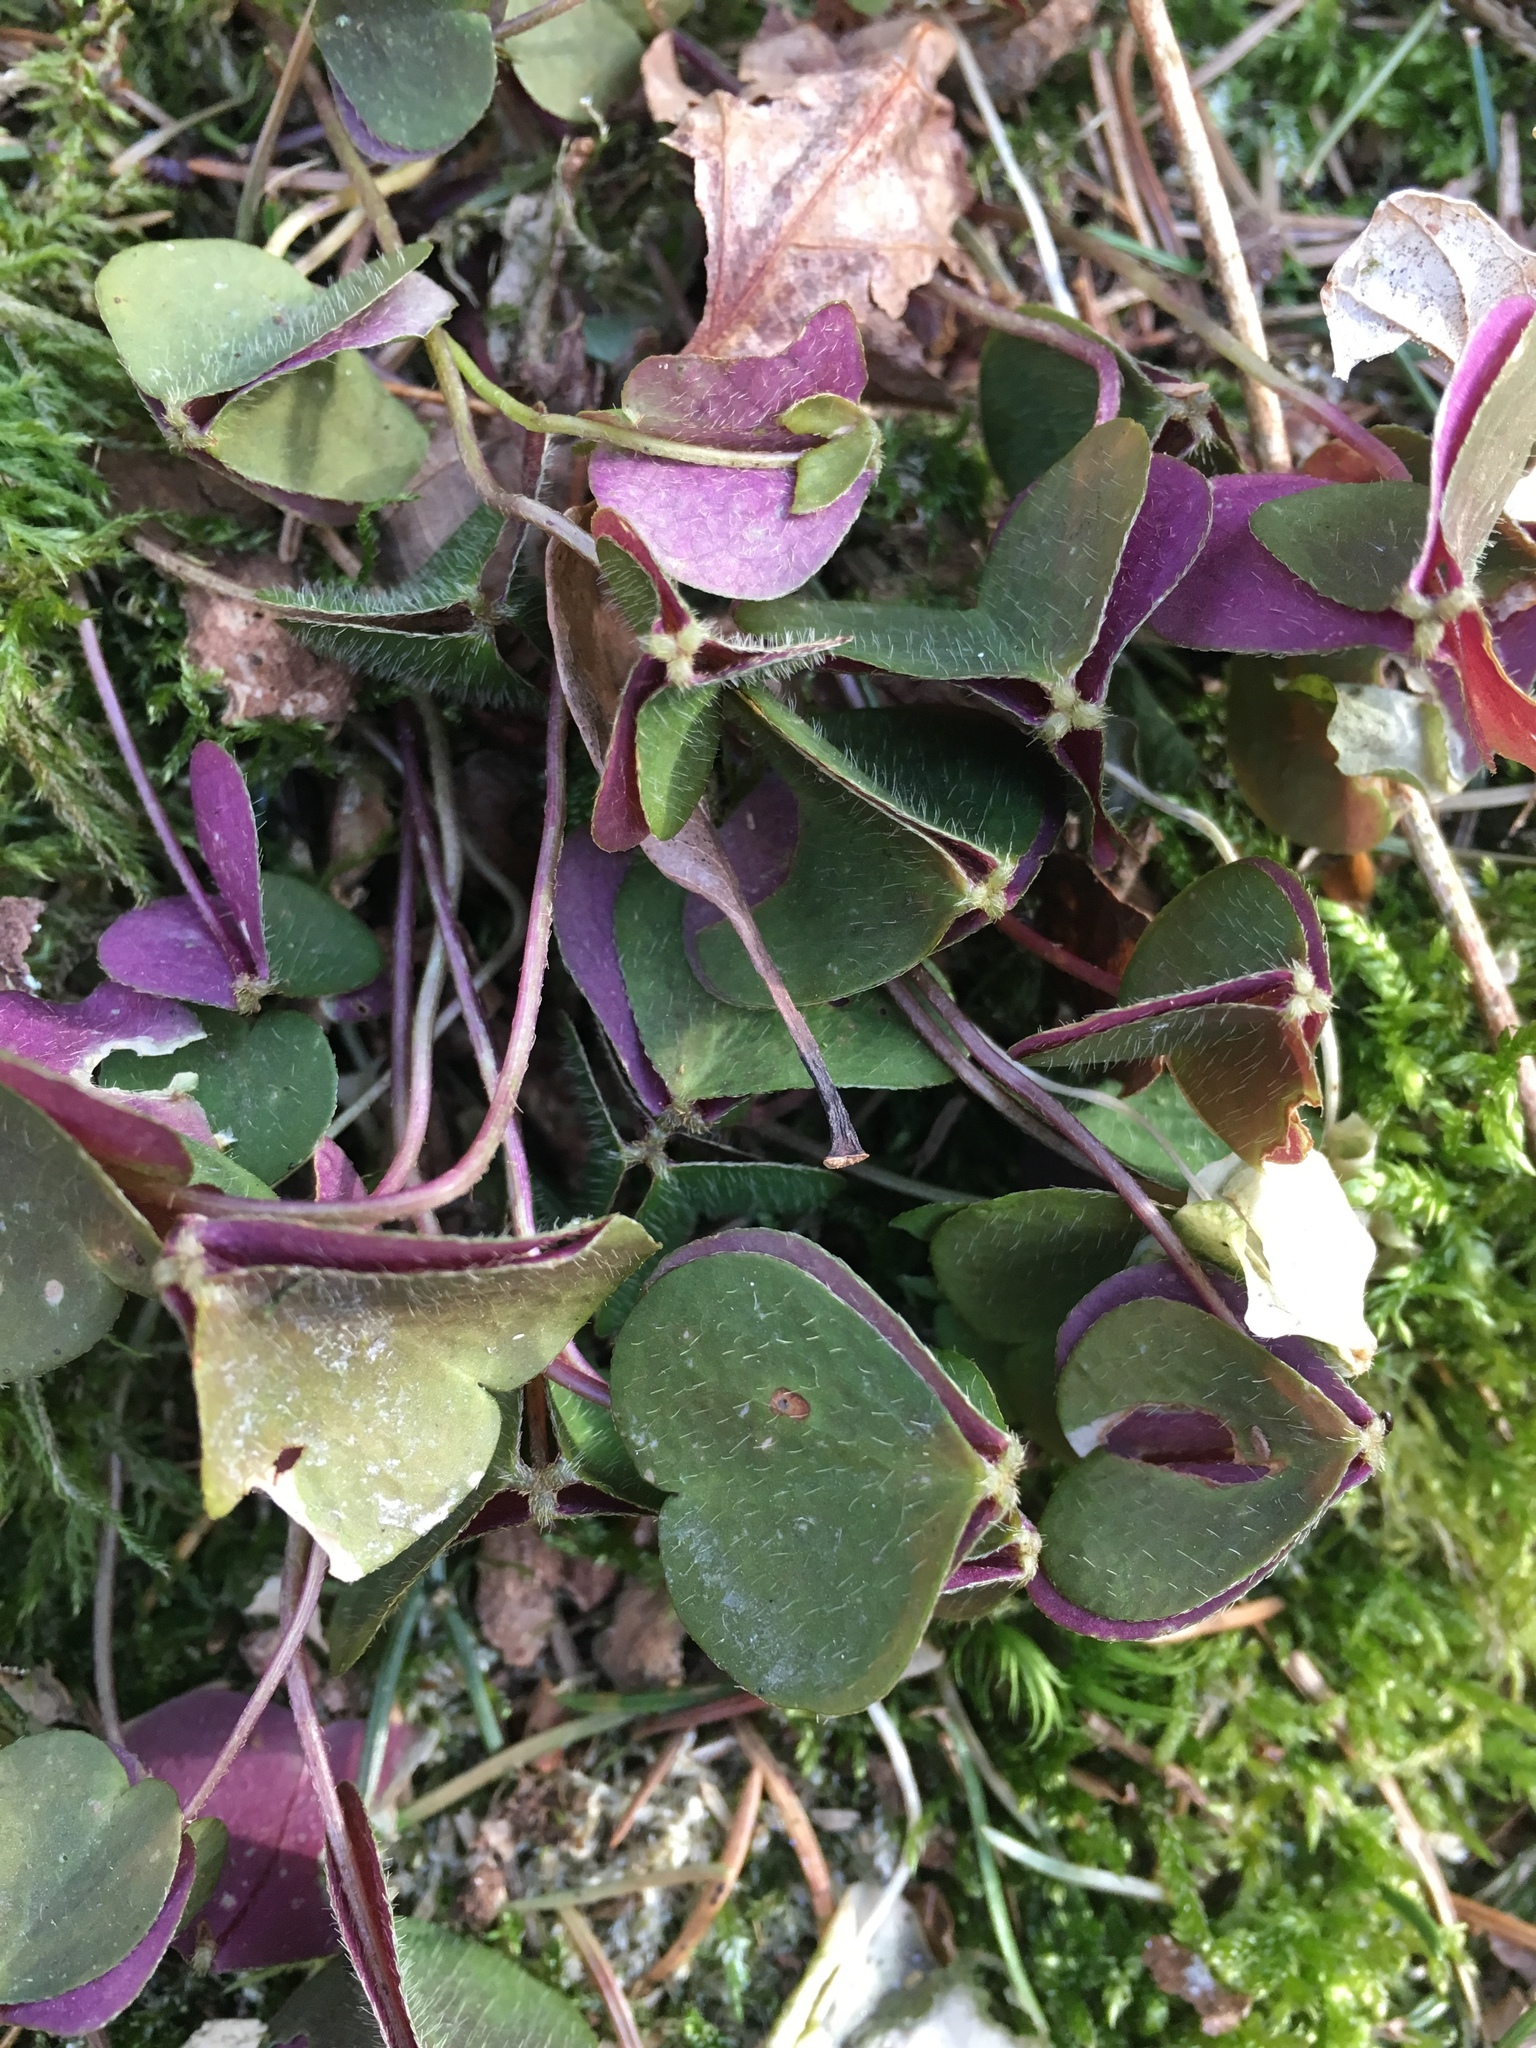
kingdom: Plantae
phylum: Tracheophyta
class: Magnoliopsida
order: Oxalidales
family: Oxalidaceae
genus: Oxalis
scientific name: Oxalis acetosella
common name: Wood-sorrel
